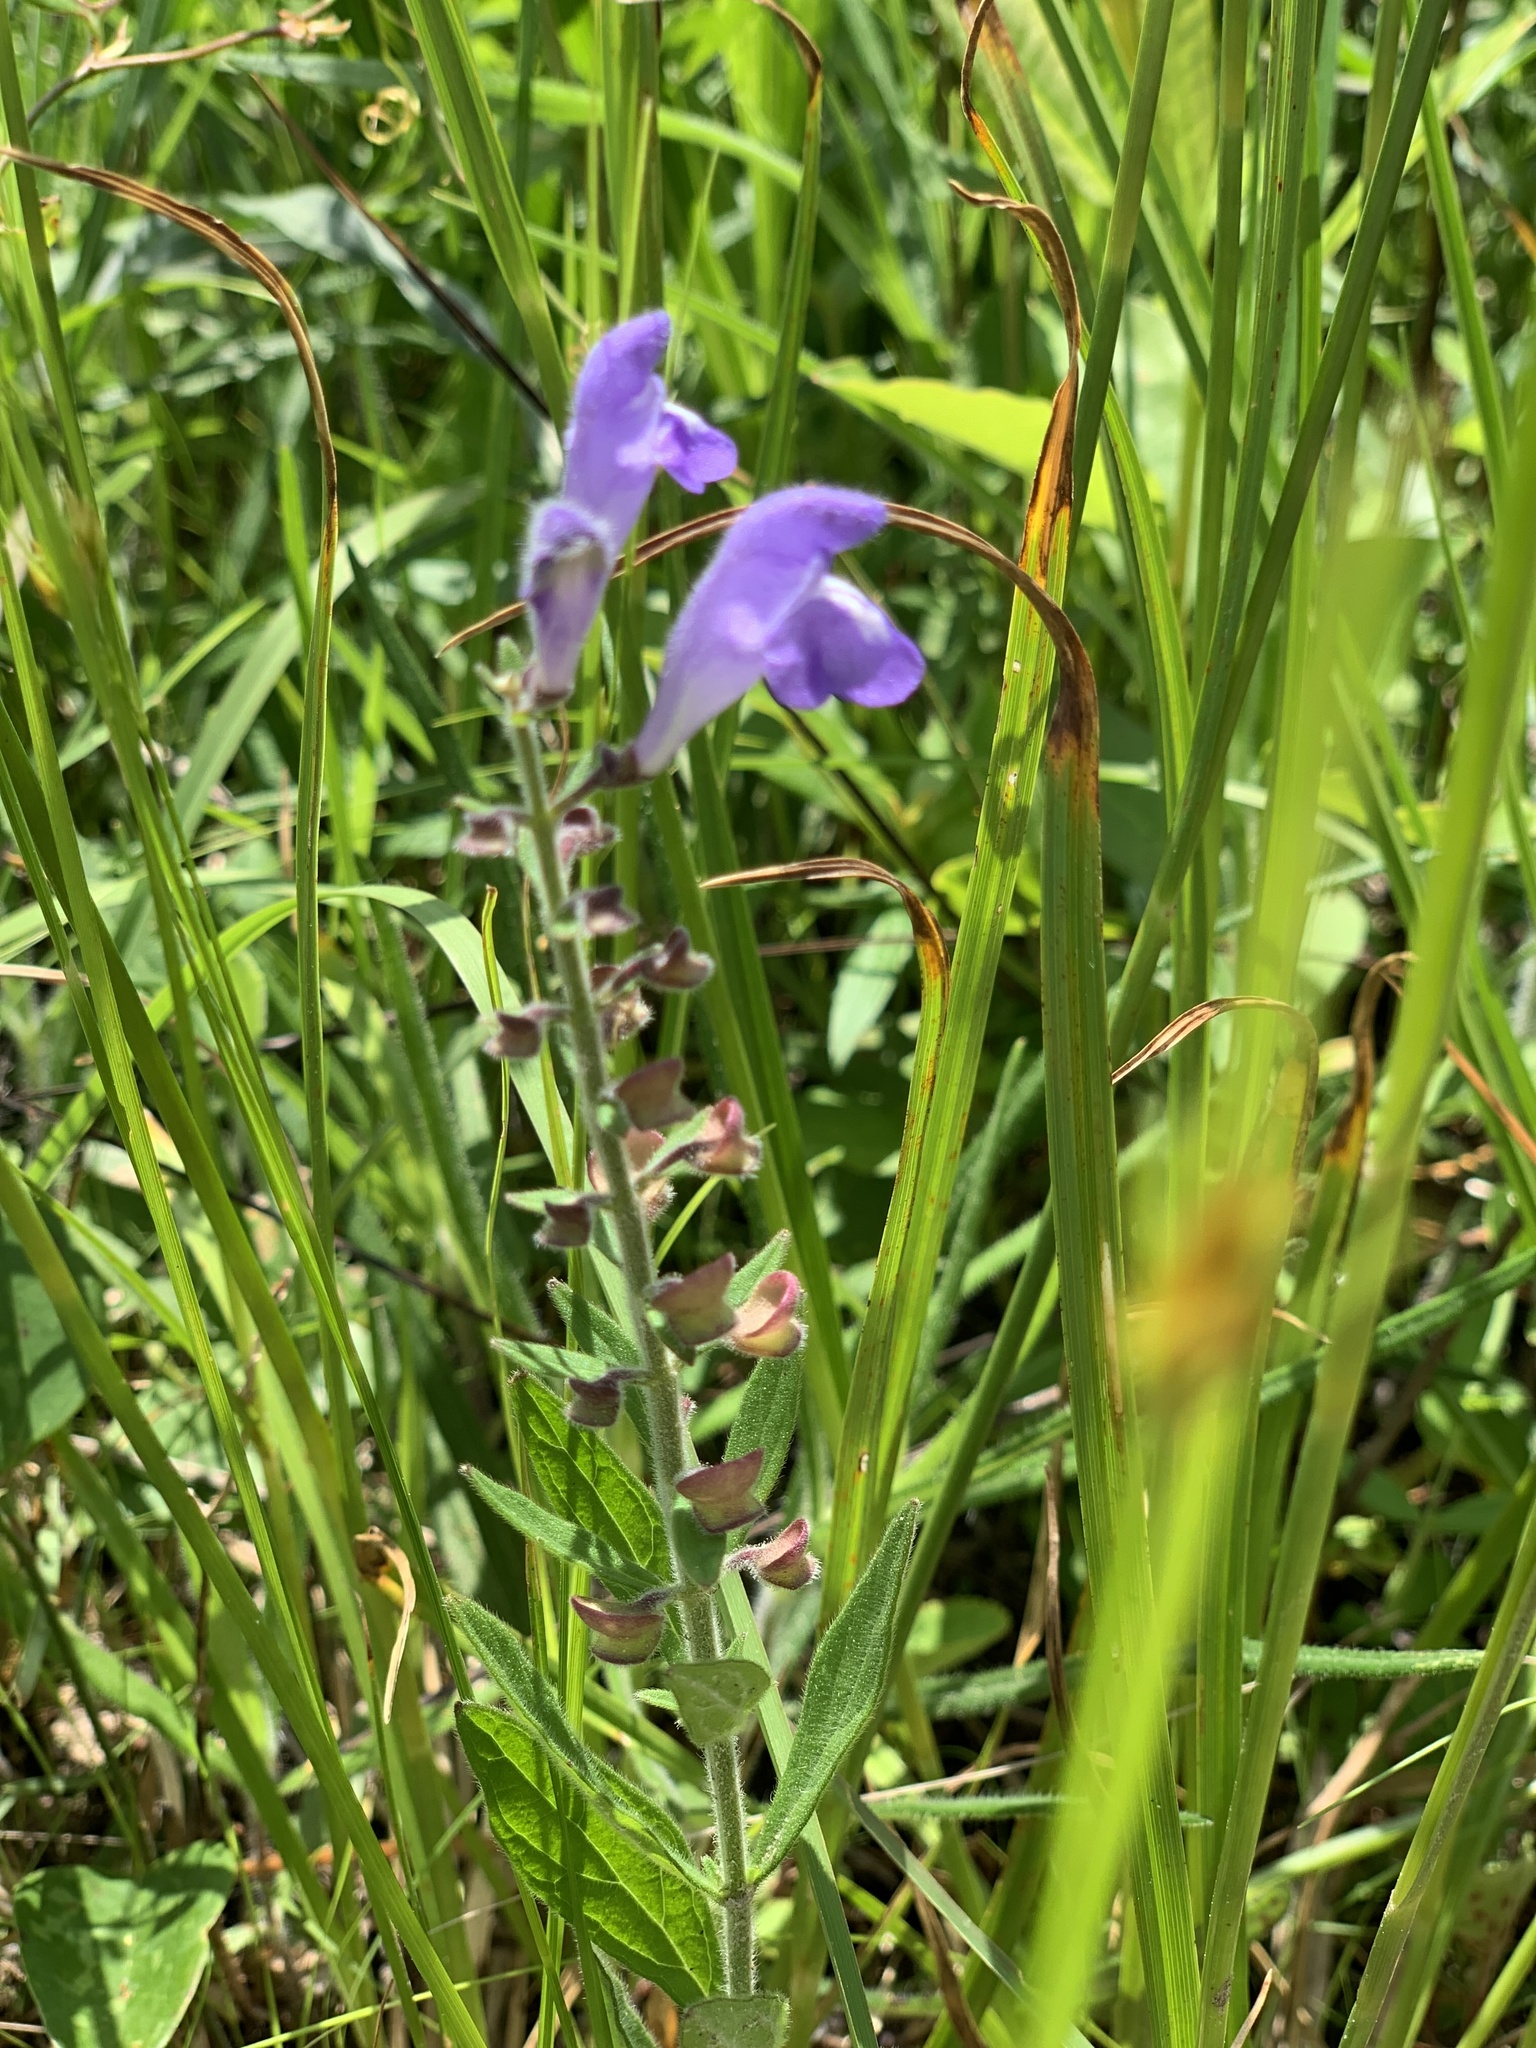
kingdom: Plantae
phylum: Tracheophyta
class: Magnoliopsida
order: Lamiales
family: Lamiaceae
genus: Scutellaria
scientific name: Scutellaria integrifolia
